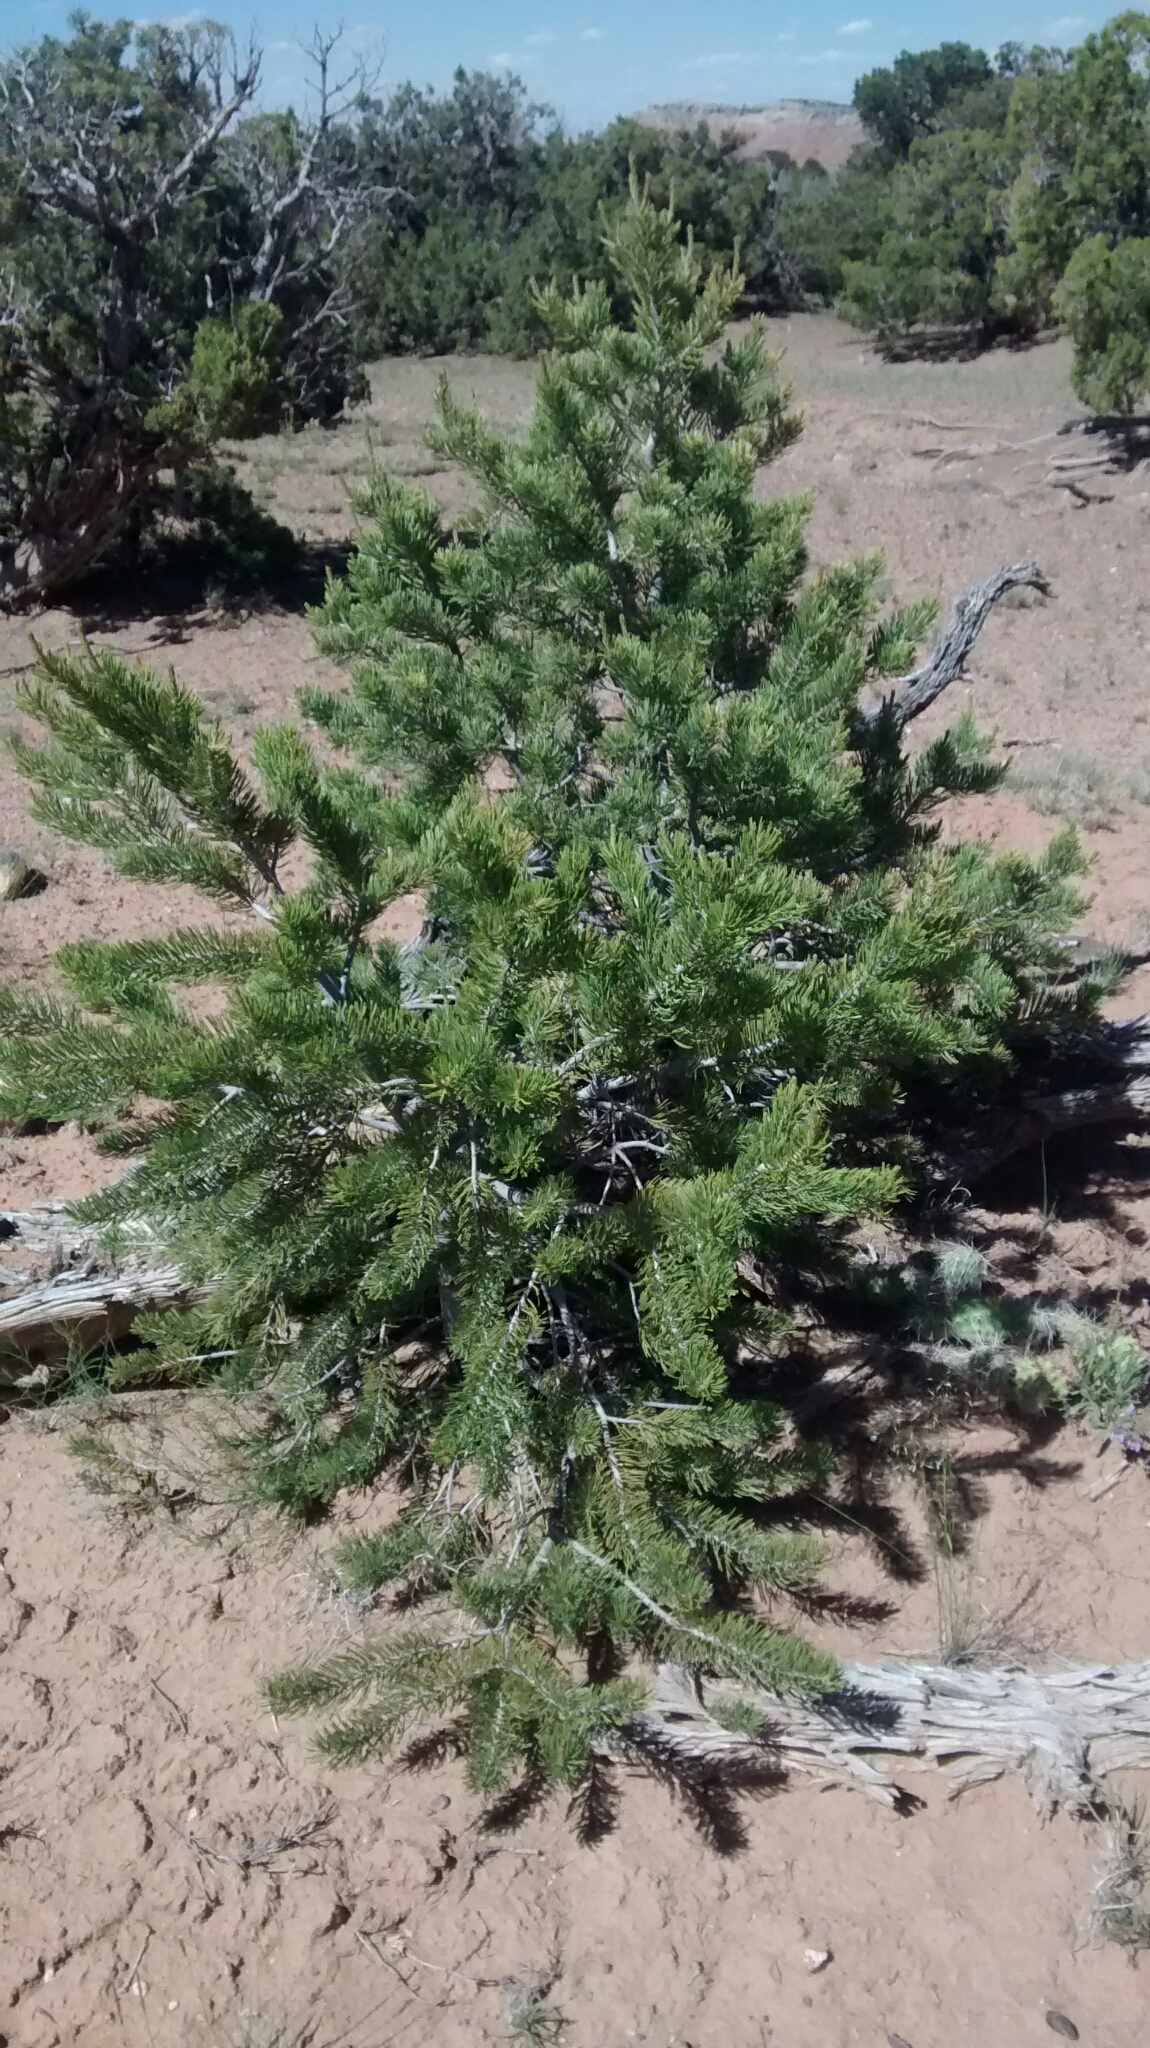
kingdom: Plantae
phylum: Tracheophyta
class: Pinopsida
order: Pinales
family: Pinaceae
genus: Pinus
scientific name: Pinus edulis
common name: Colorado pinyon
